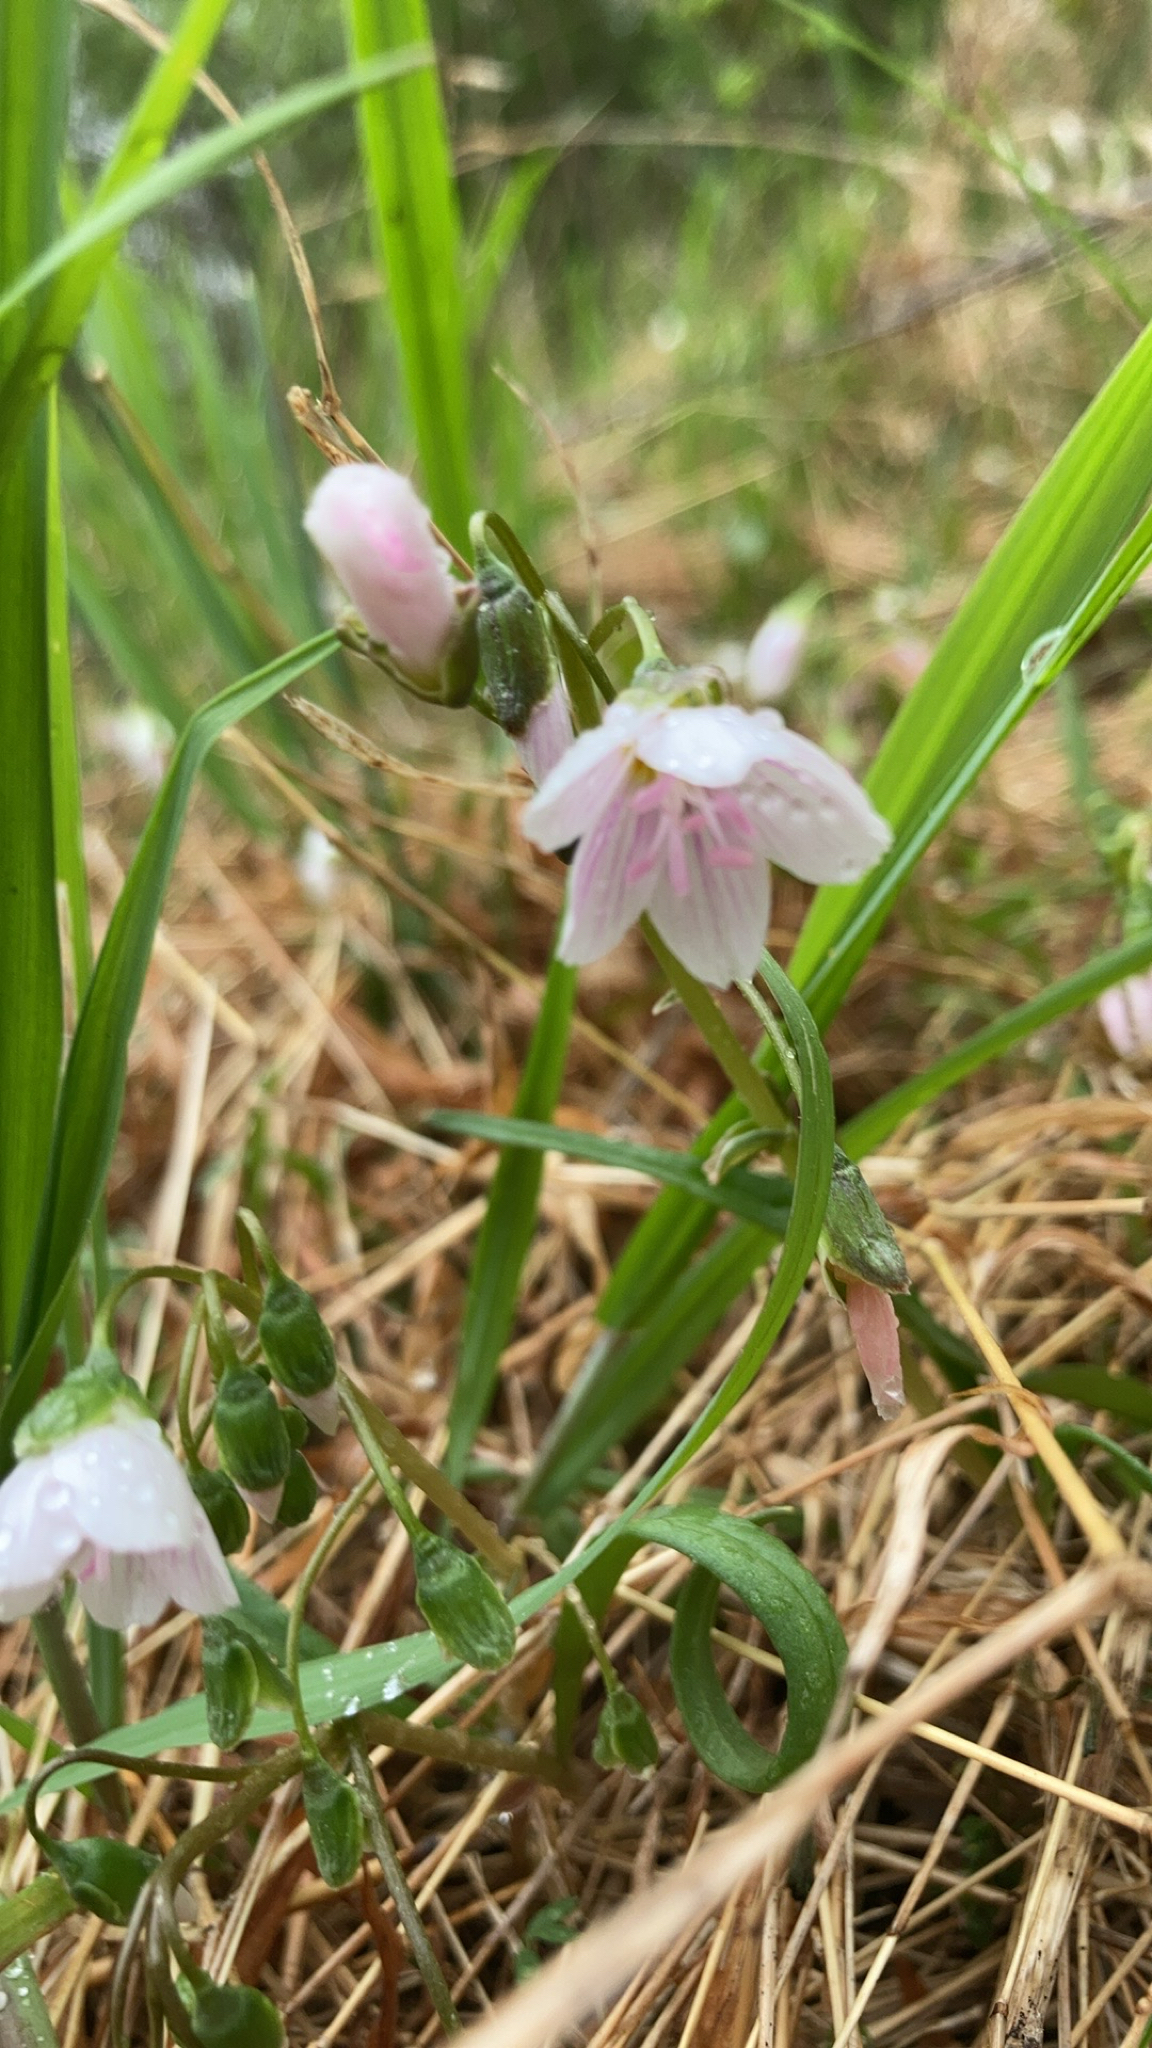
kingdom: Plantae
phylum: Tracheophyta
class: Magnoliopsida
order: Caryophyllales
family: Montiaceae
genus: Claytonia
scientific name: Claytonia virginica
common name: Virginia springbeauty
